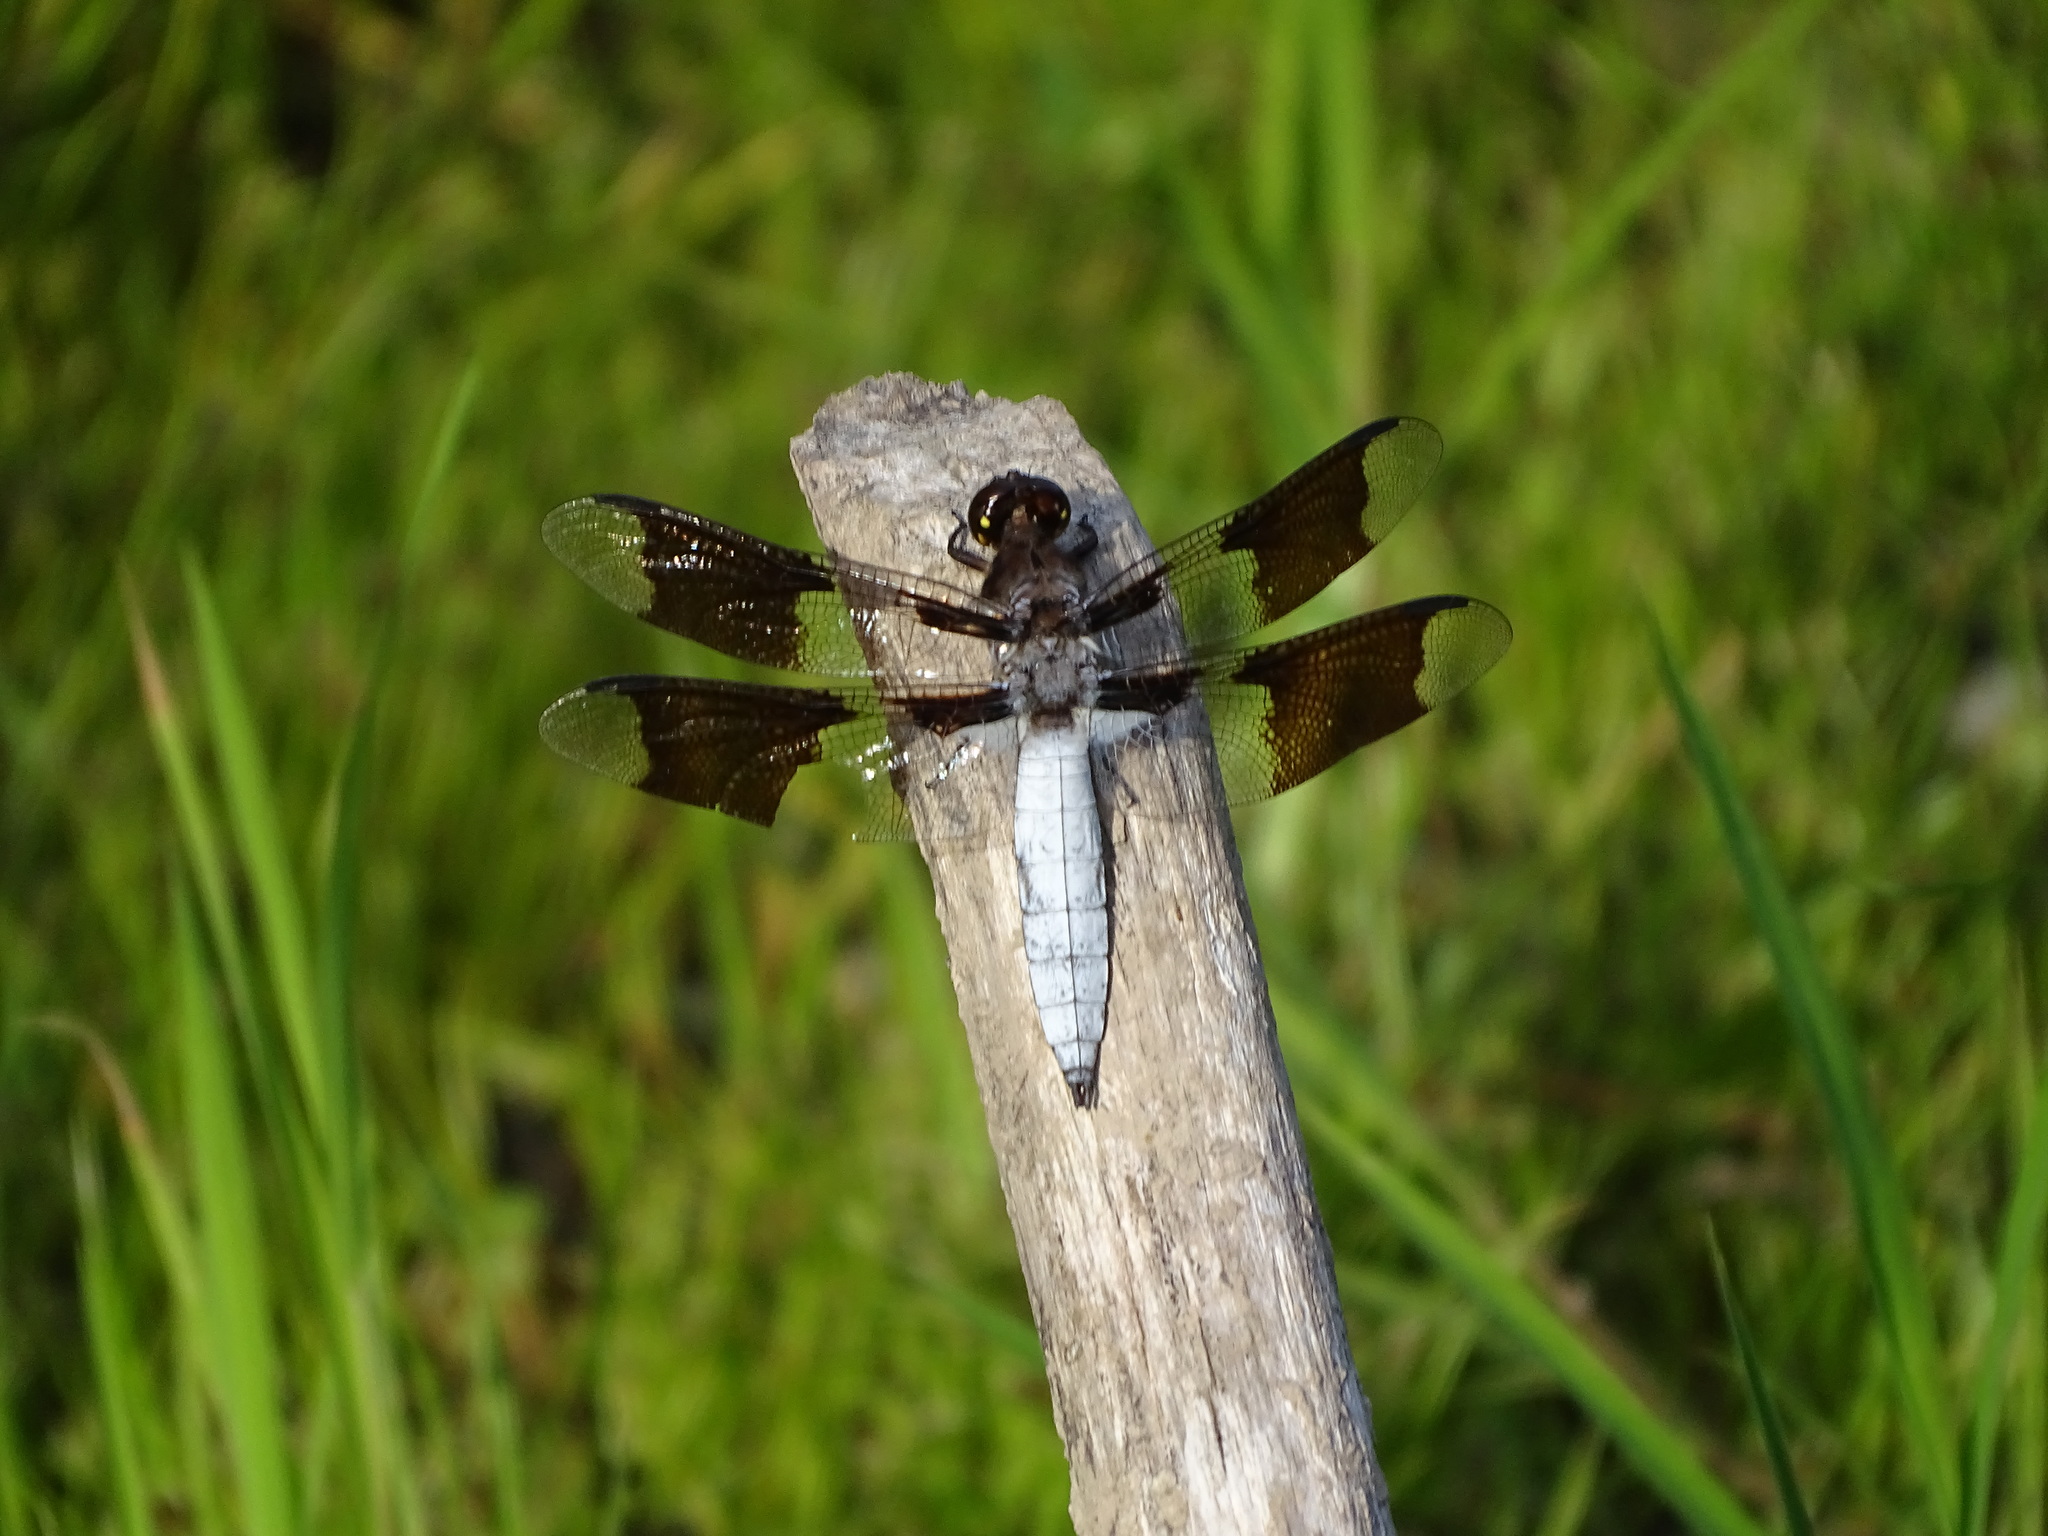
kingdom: Animalia
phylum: Arthropoda
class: Insecta
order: Odonata
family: Libellulidae
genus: Plathemis
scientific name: Plathemis lydia
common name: Common whitetail
